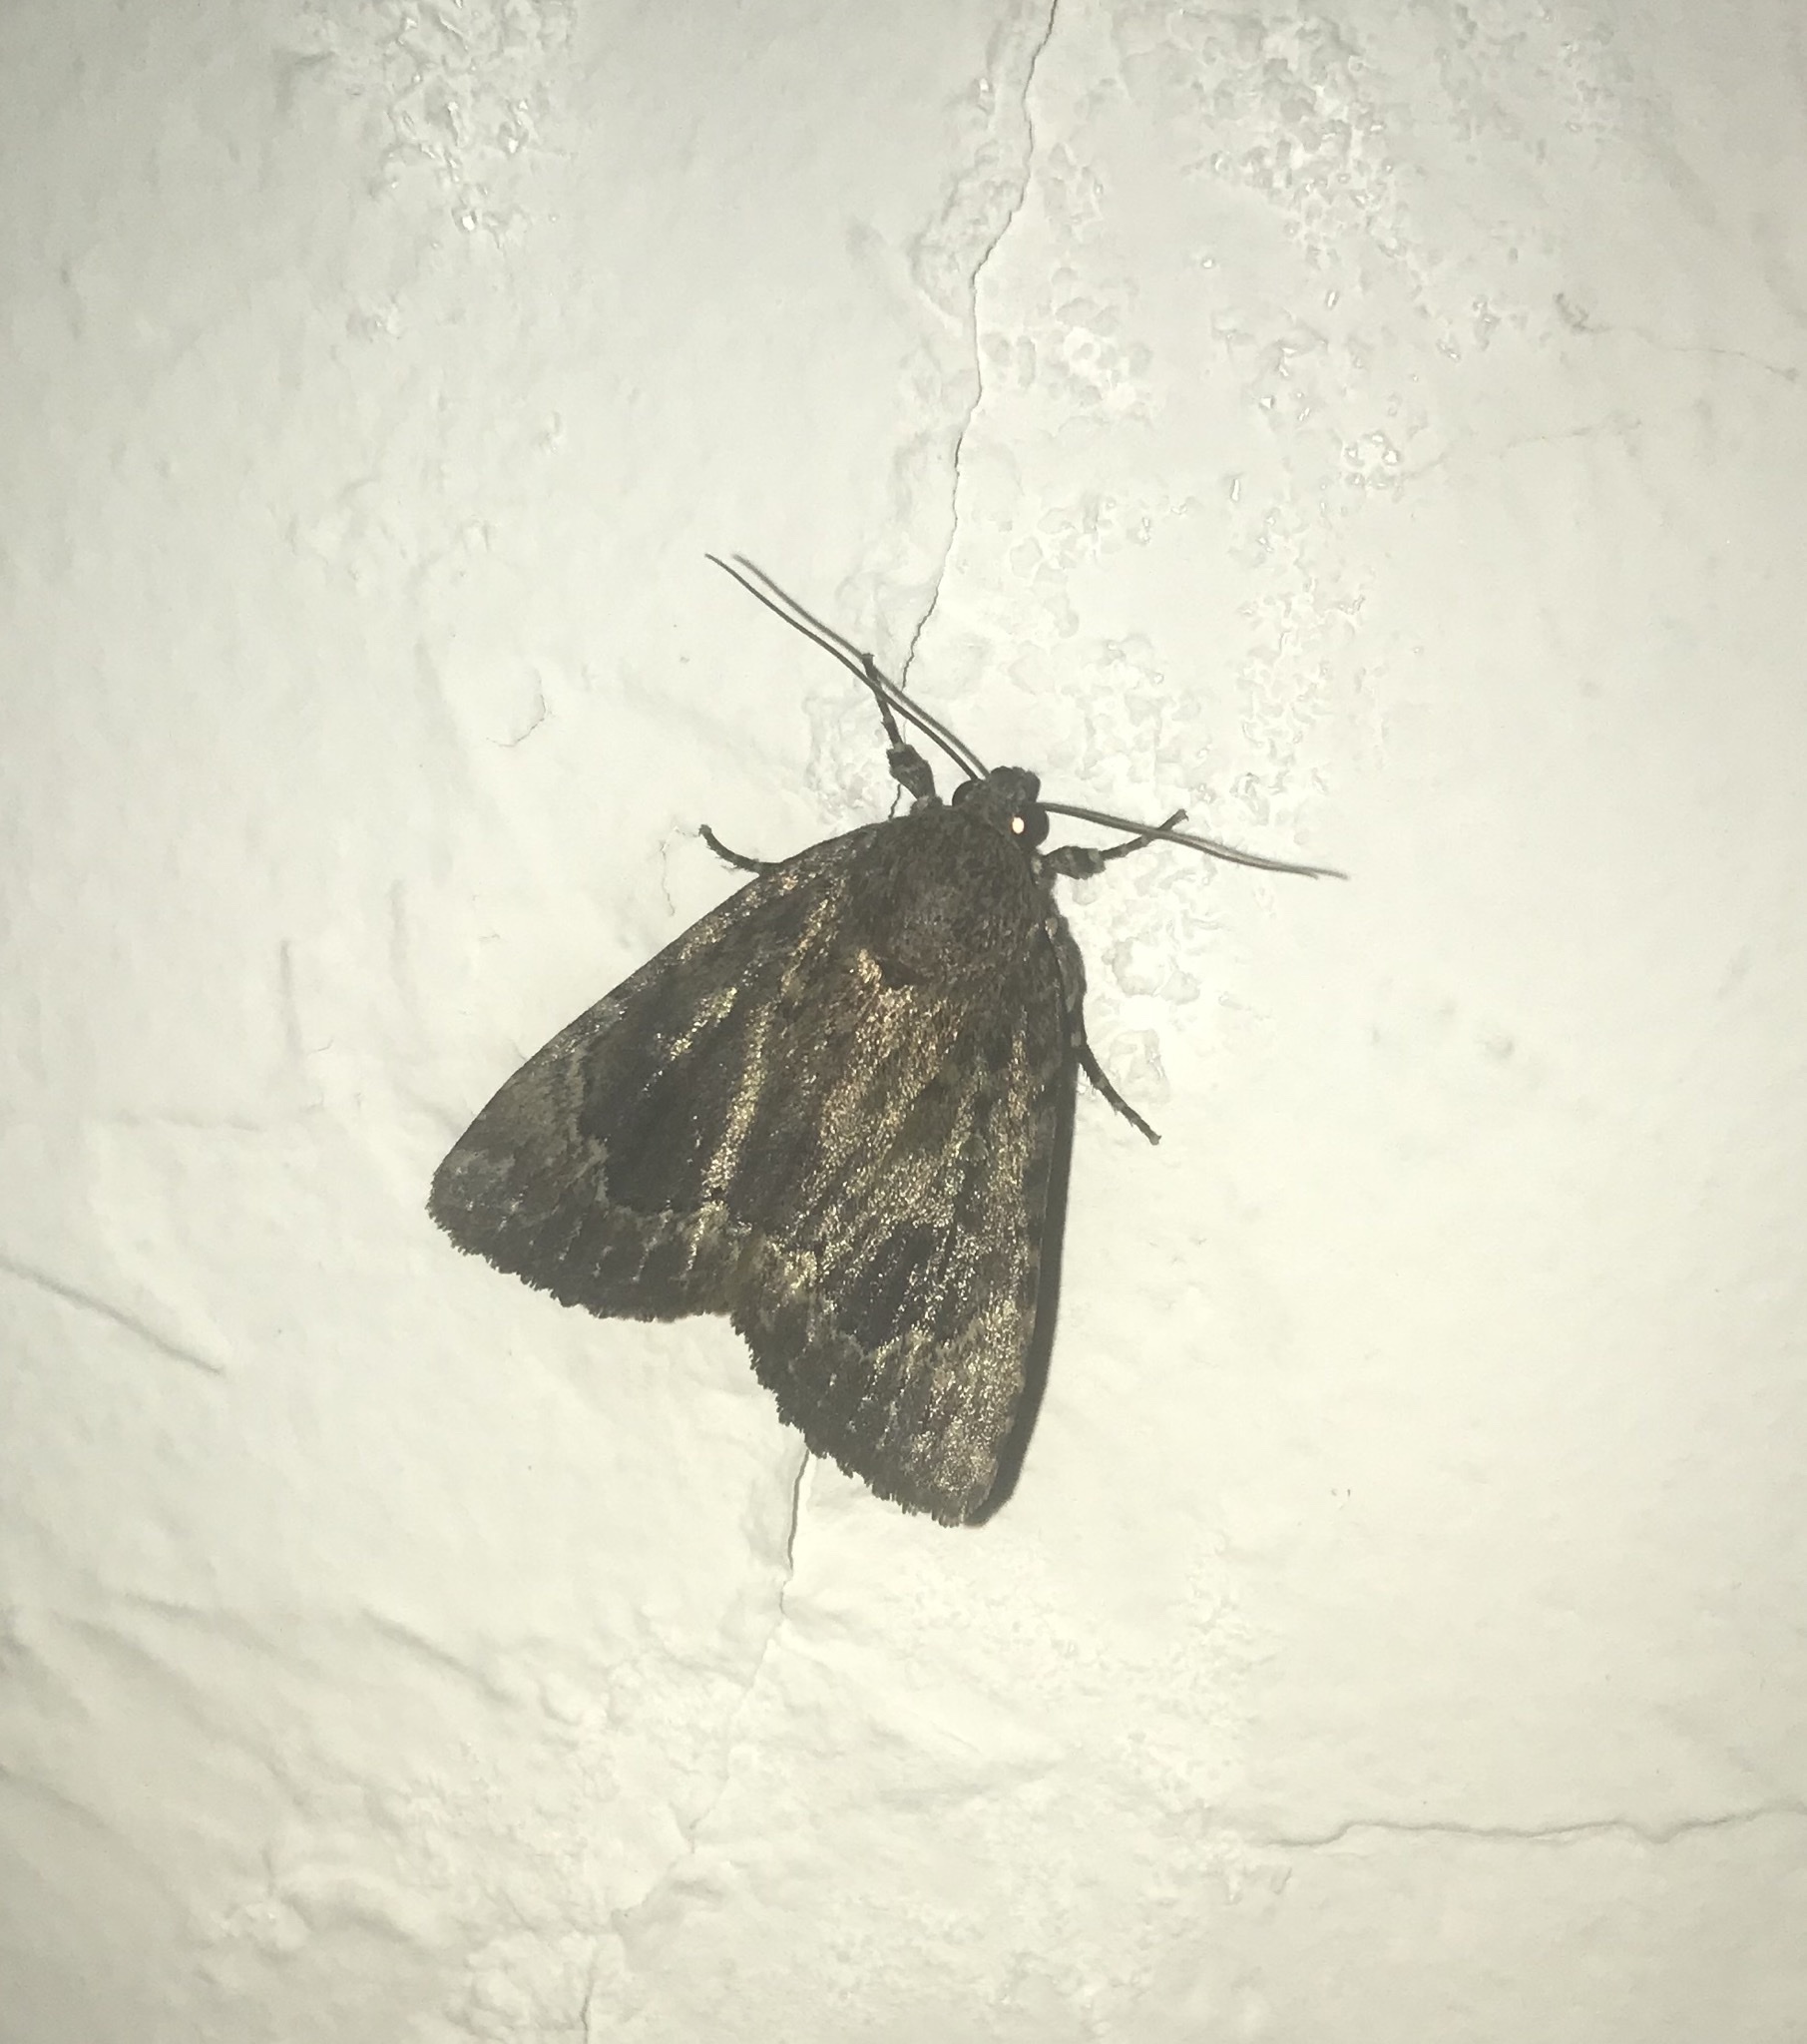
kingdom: Animalia
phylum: Arthropoda
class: Insecta
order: Lepidoptera
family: Noctuidae
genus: Amphipyra
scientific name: Amphipyra pyramidoides
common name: American copper underwing
